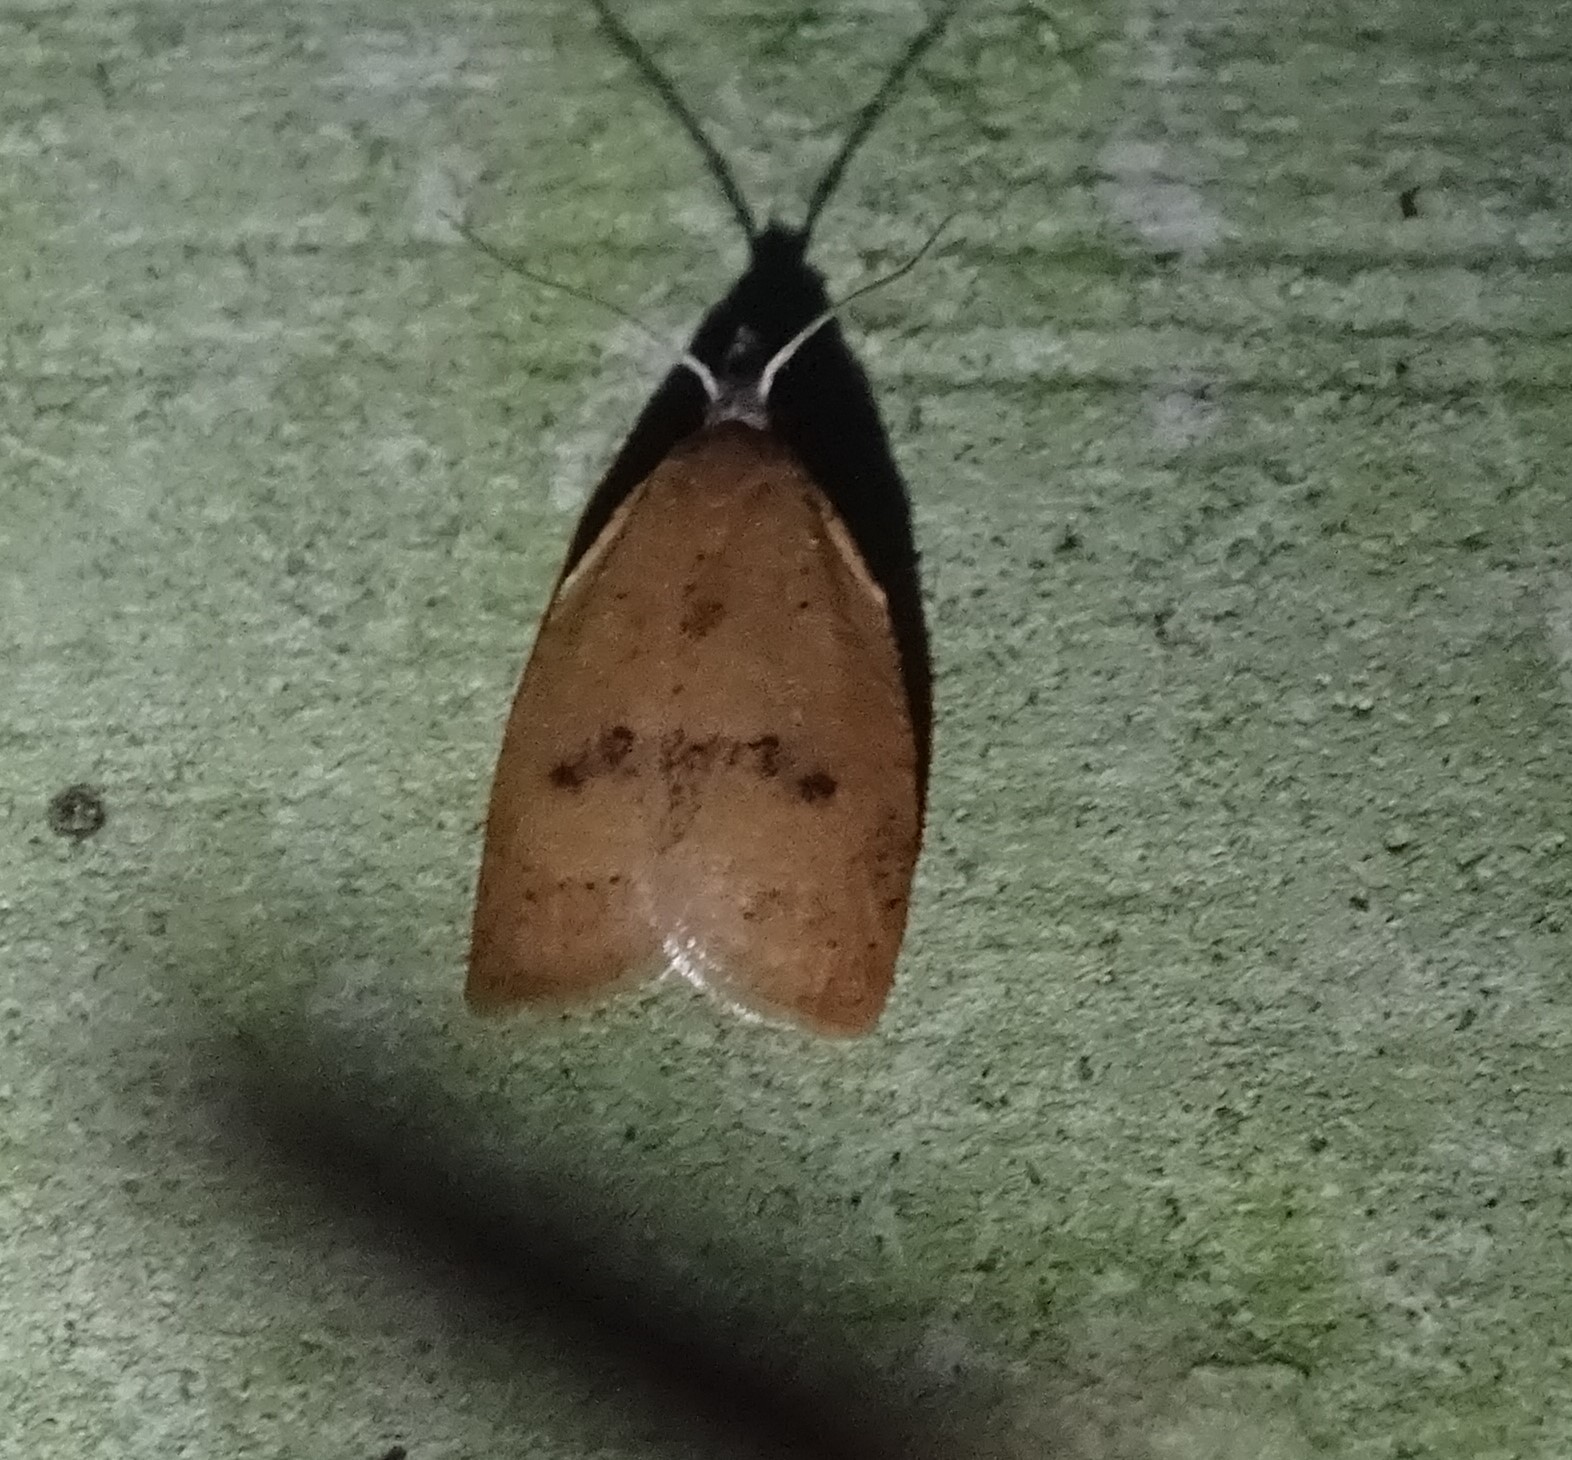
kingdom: Animalia
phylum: Arthropoda
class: Insecta
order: Lepidoptera
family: Tortricidae
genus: Sparganothoides
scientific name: Sparganothoides lentiginosana
